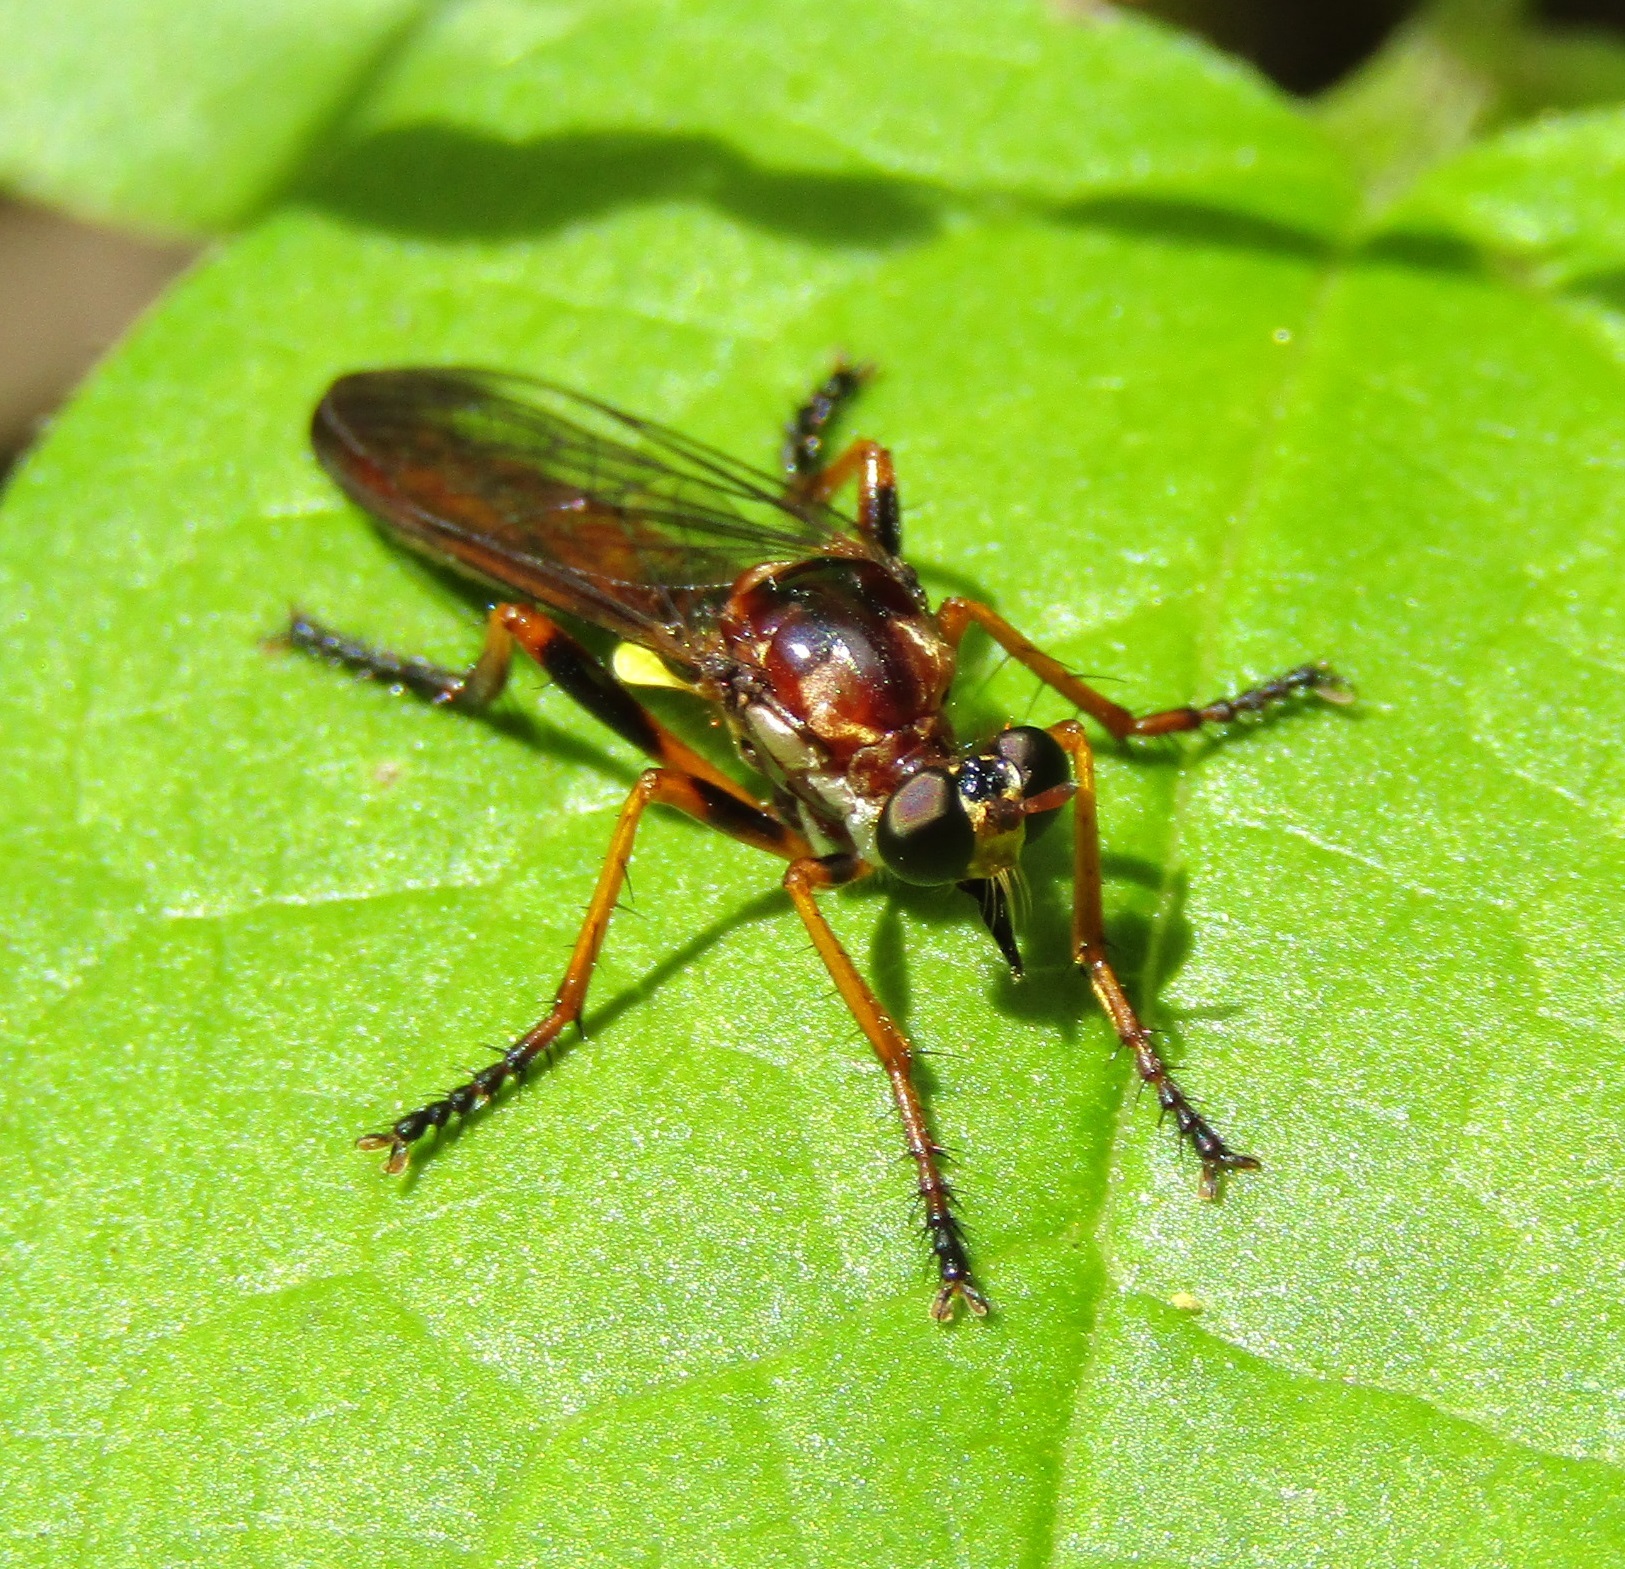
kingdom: Animalia
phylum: Arthropoda
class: Insecta
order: Diptera
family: Asilidae
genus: Saropogon
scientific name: Saropogon fascipes
